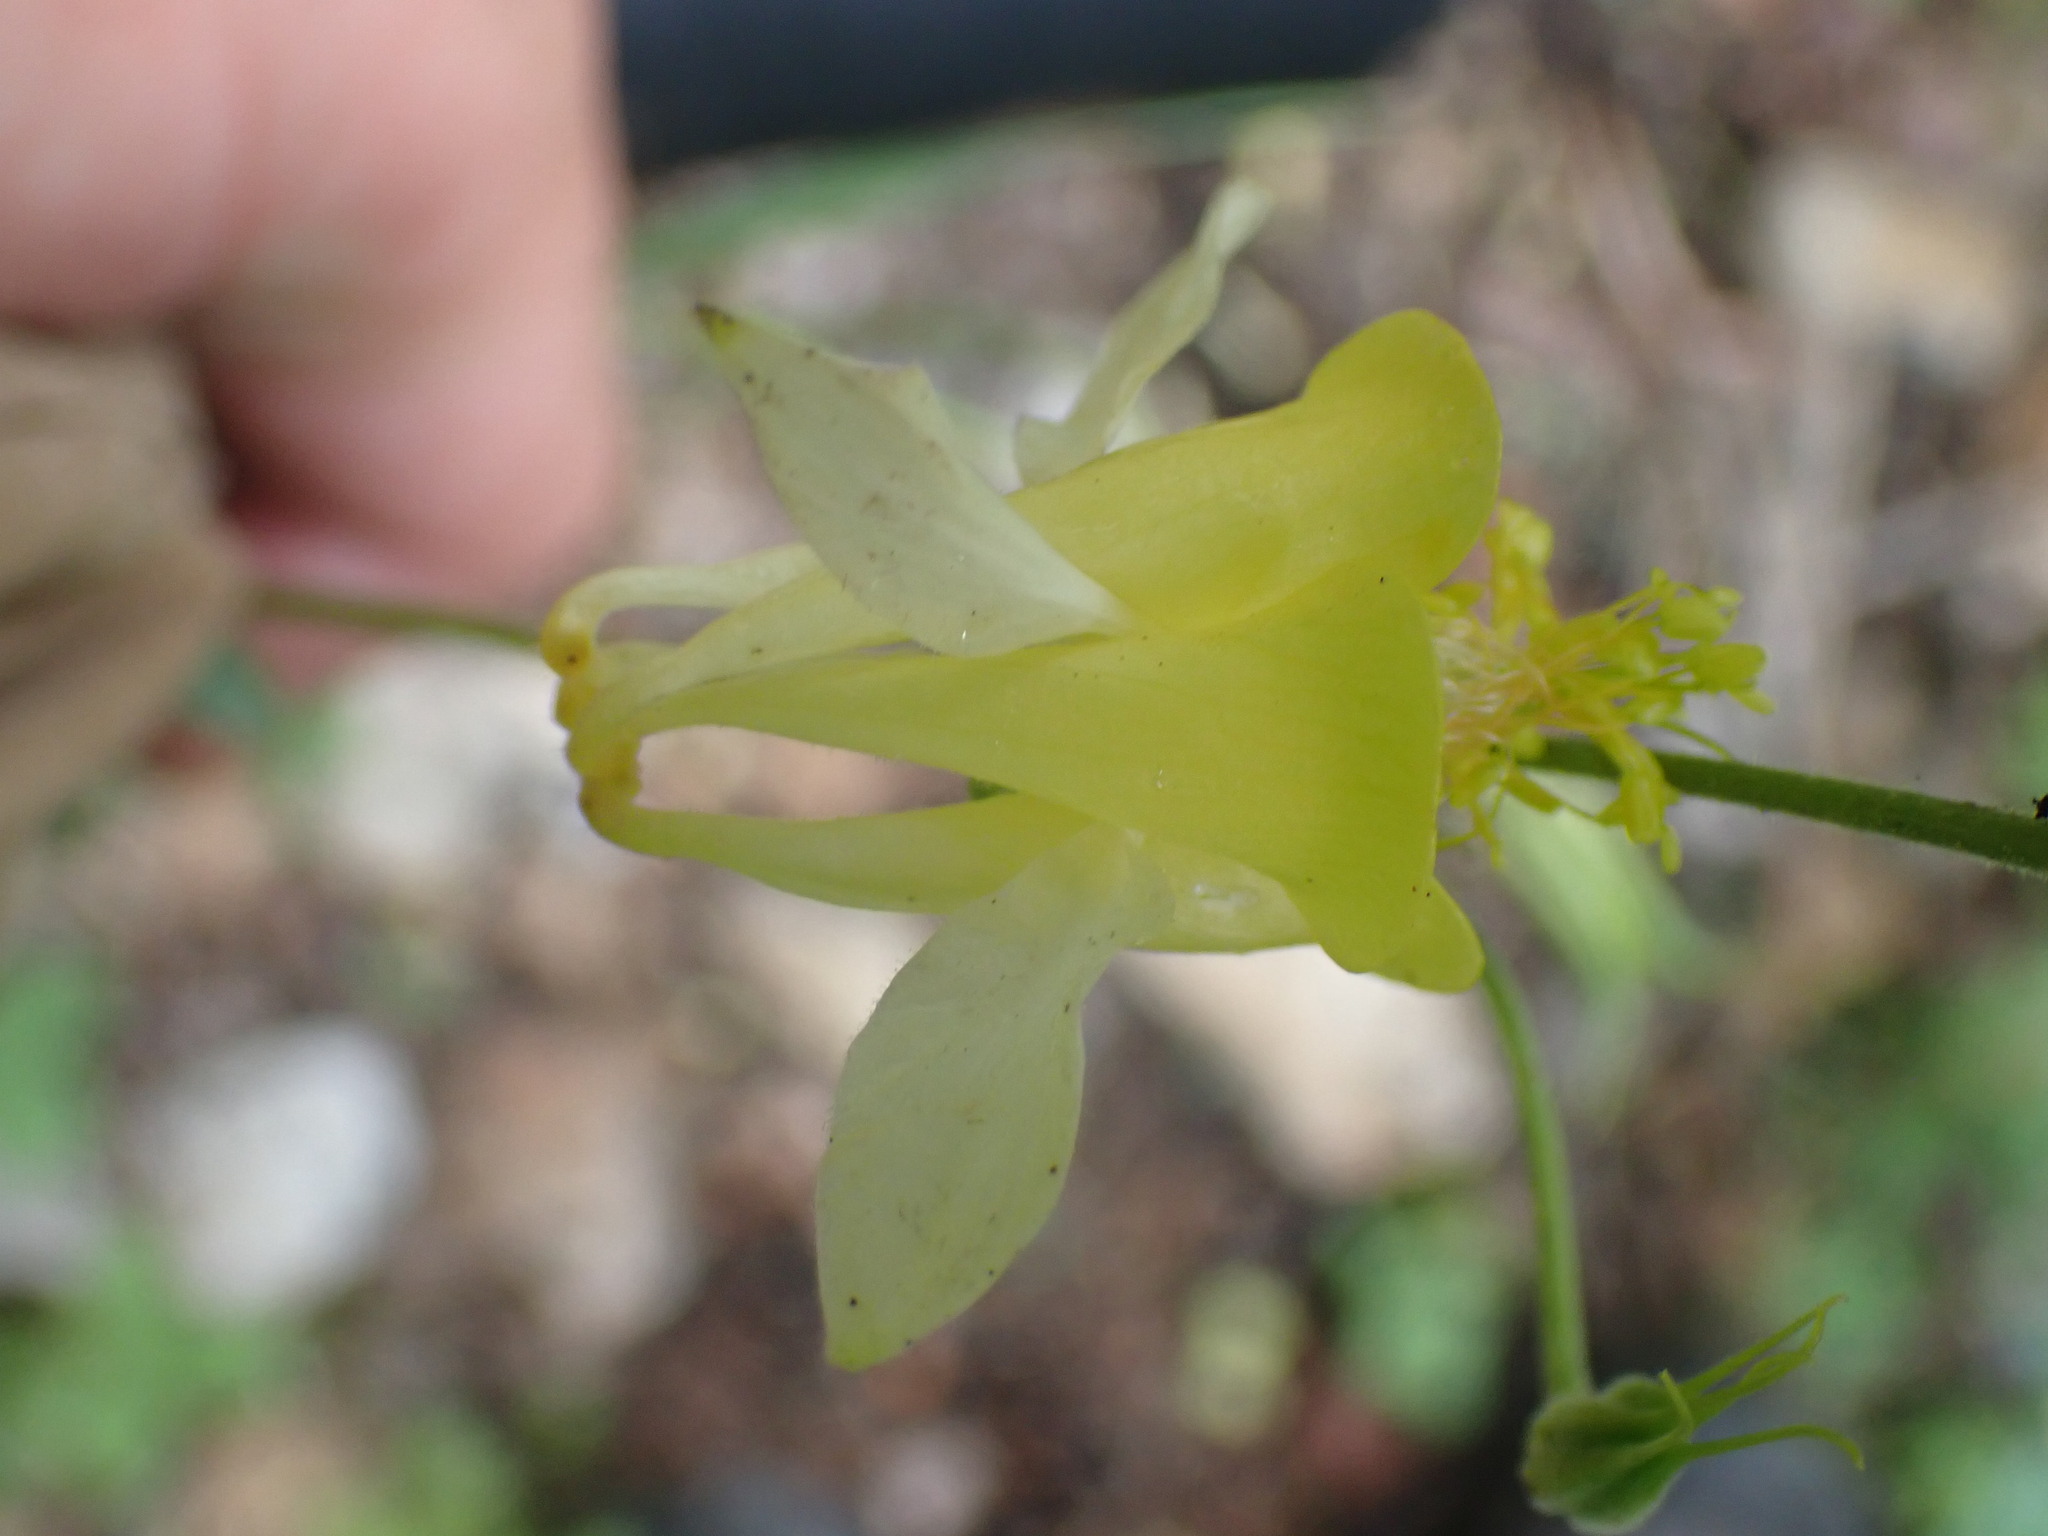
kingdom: Plantae
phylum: Tracheophyta
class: Magnoliopsida
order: Ranunculales
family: Ranunculaceae
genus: Aquilegia
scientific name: Aquilegia flavescens
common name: Yellow columbine
